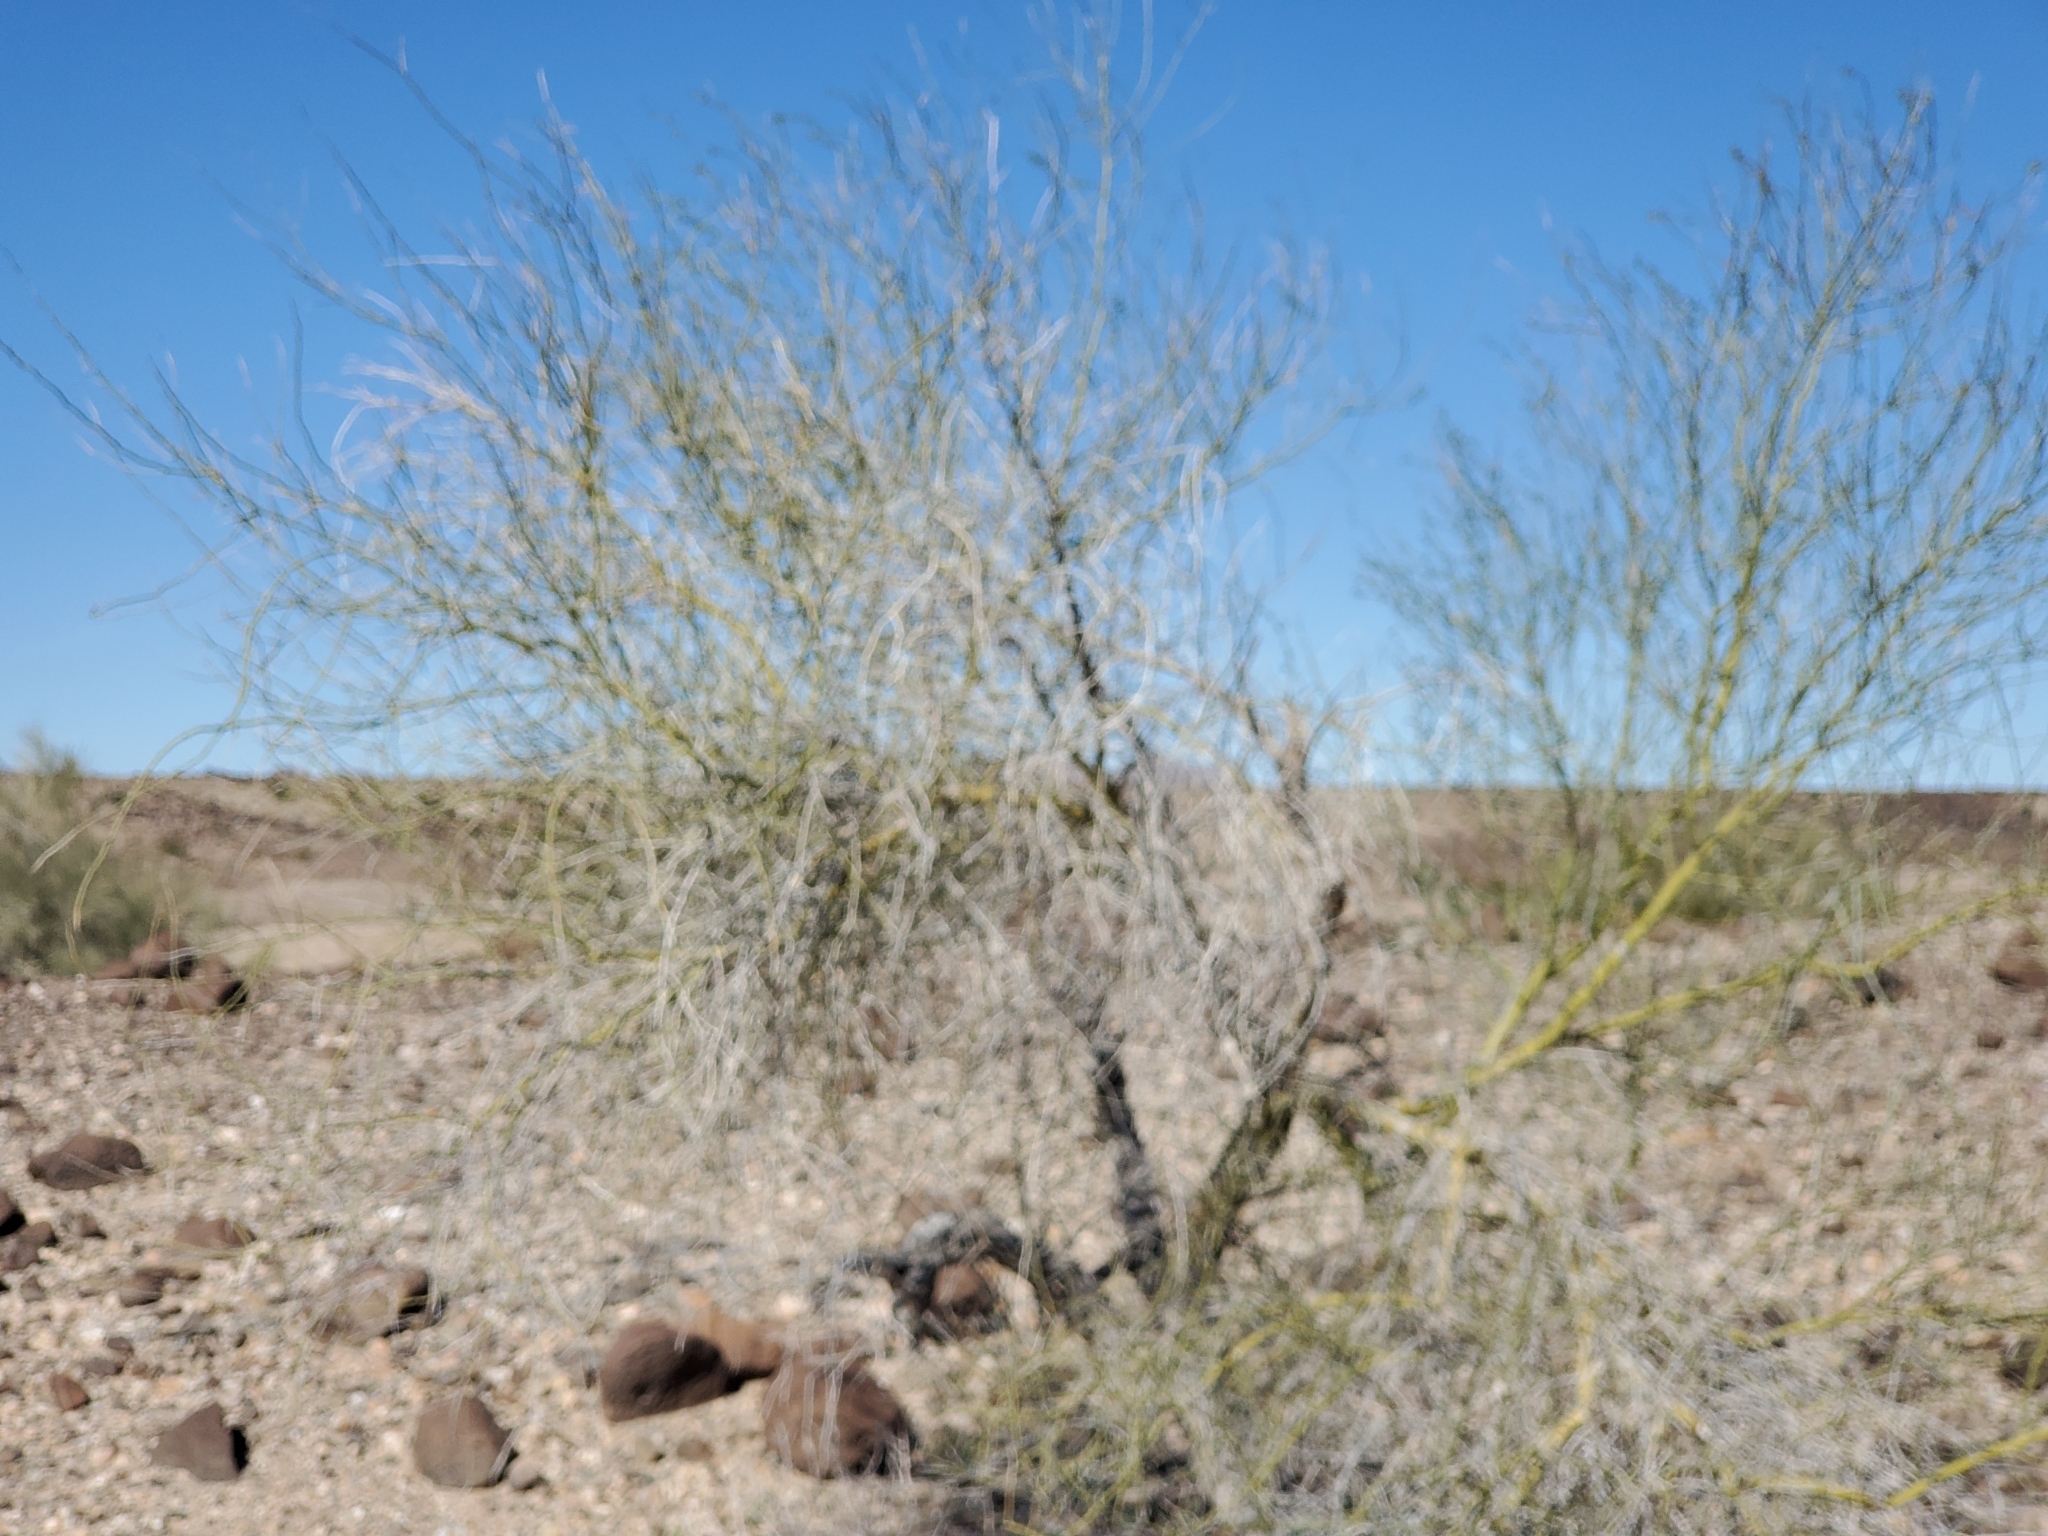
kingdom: Plantae
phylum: Tracheophyta
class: Magnoliopsida
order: Fabales
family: Fabaceae
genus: Parkinsonia
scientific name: Parkinsonia florida
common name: Blue paloverde
